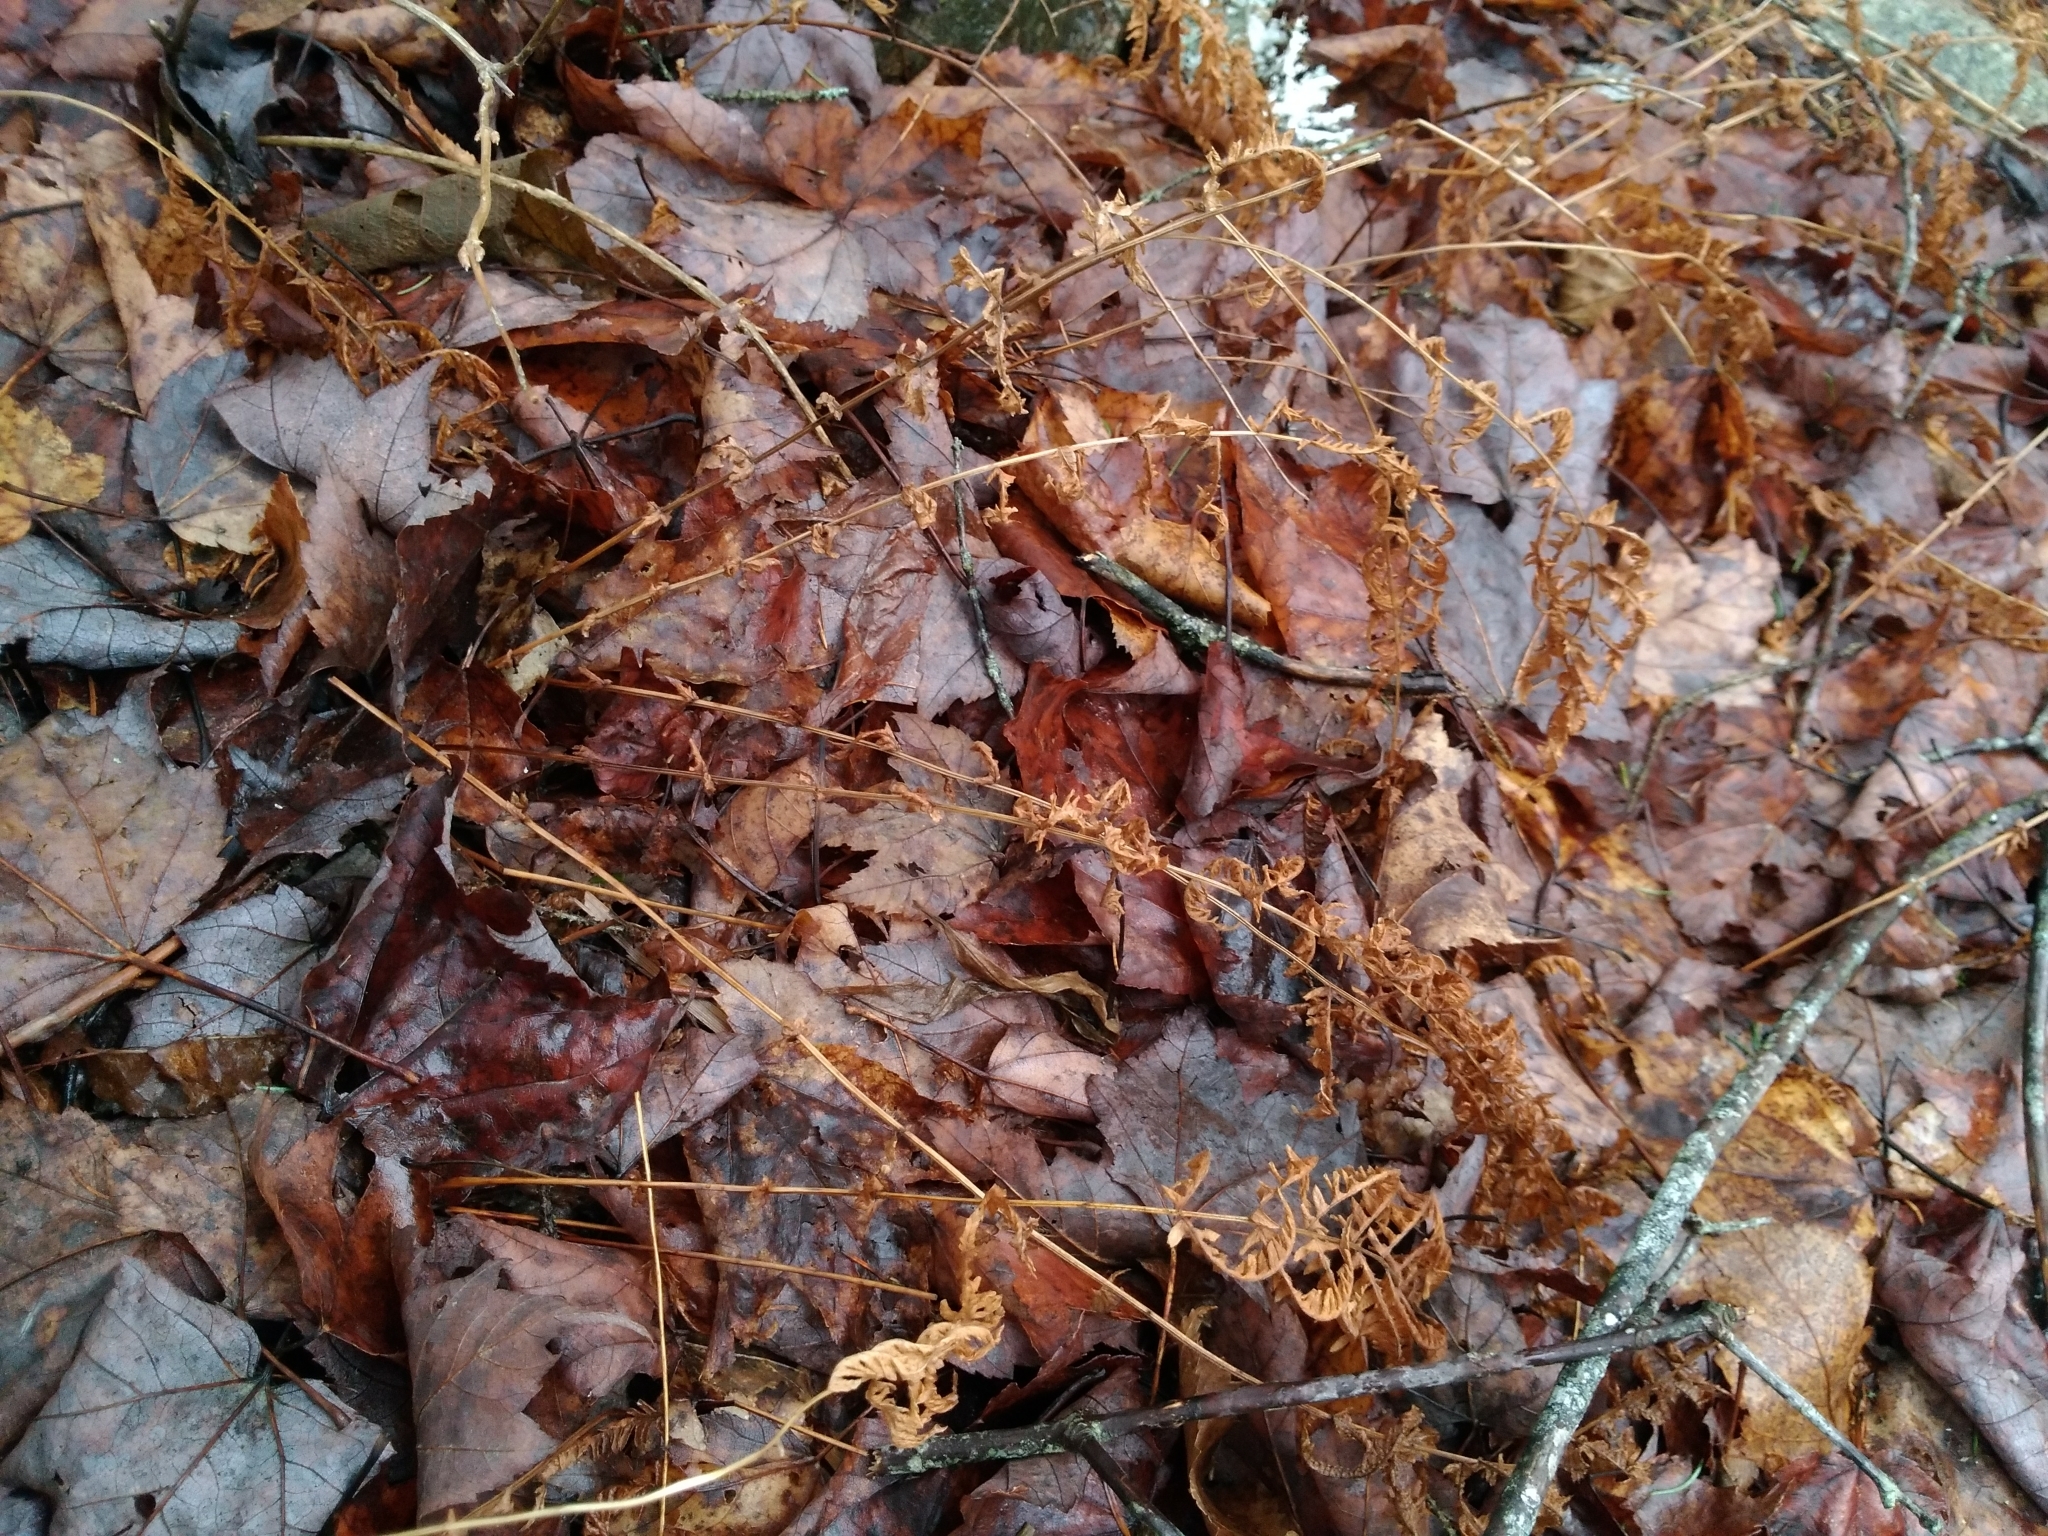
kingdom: Plantae
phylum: Tracheophyta
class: Polypodiopsida
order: Polypodiales
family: Thelypteridaceae
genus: Amauropelta
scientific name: Amauropelta noveboracensis
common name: New york fern
